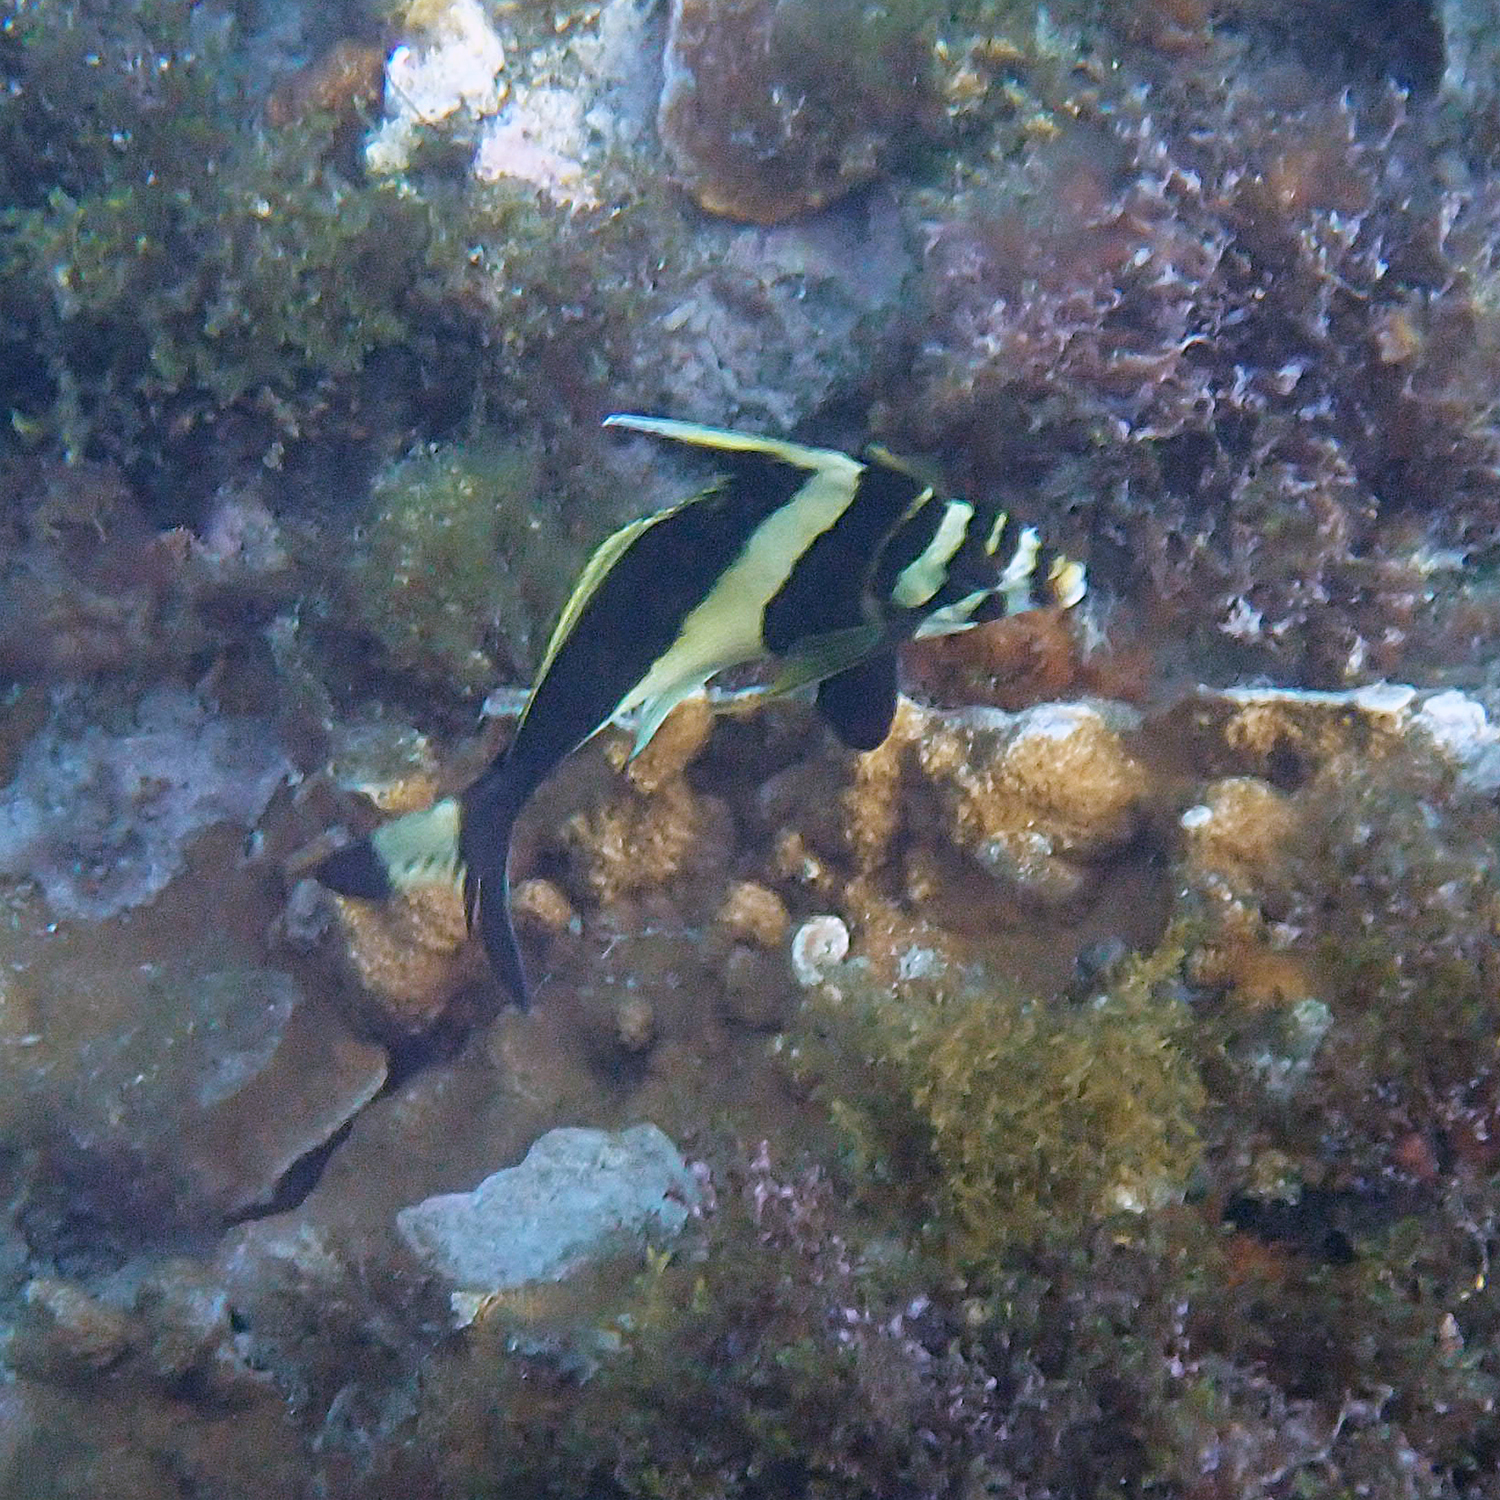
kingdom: Animalia
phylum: Chordata
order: Perciformes
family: Cheilodactylidae
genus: Cheilodactylus
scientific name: Cheilodactylus francisi
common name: Blacktip morwong
